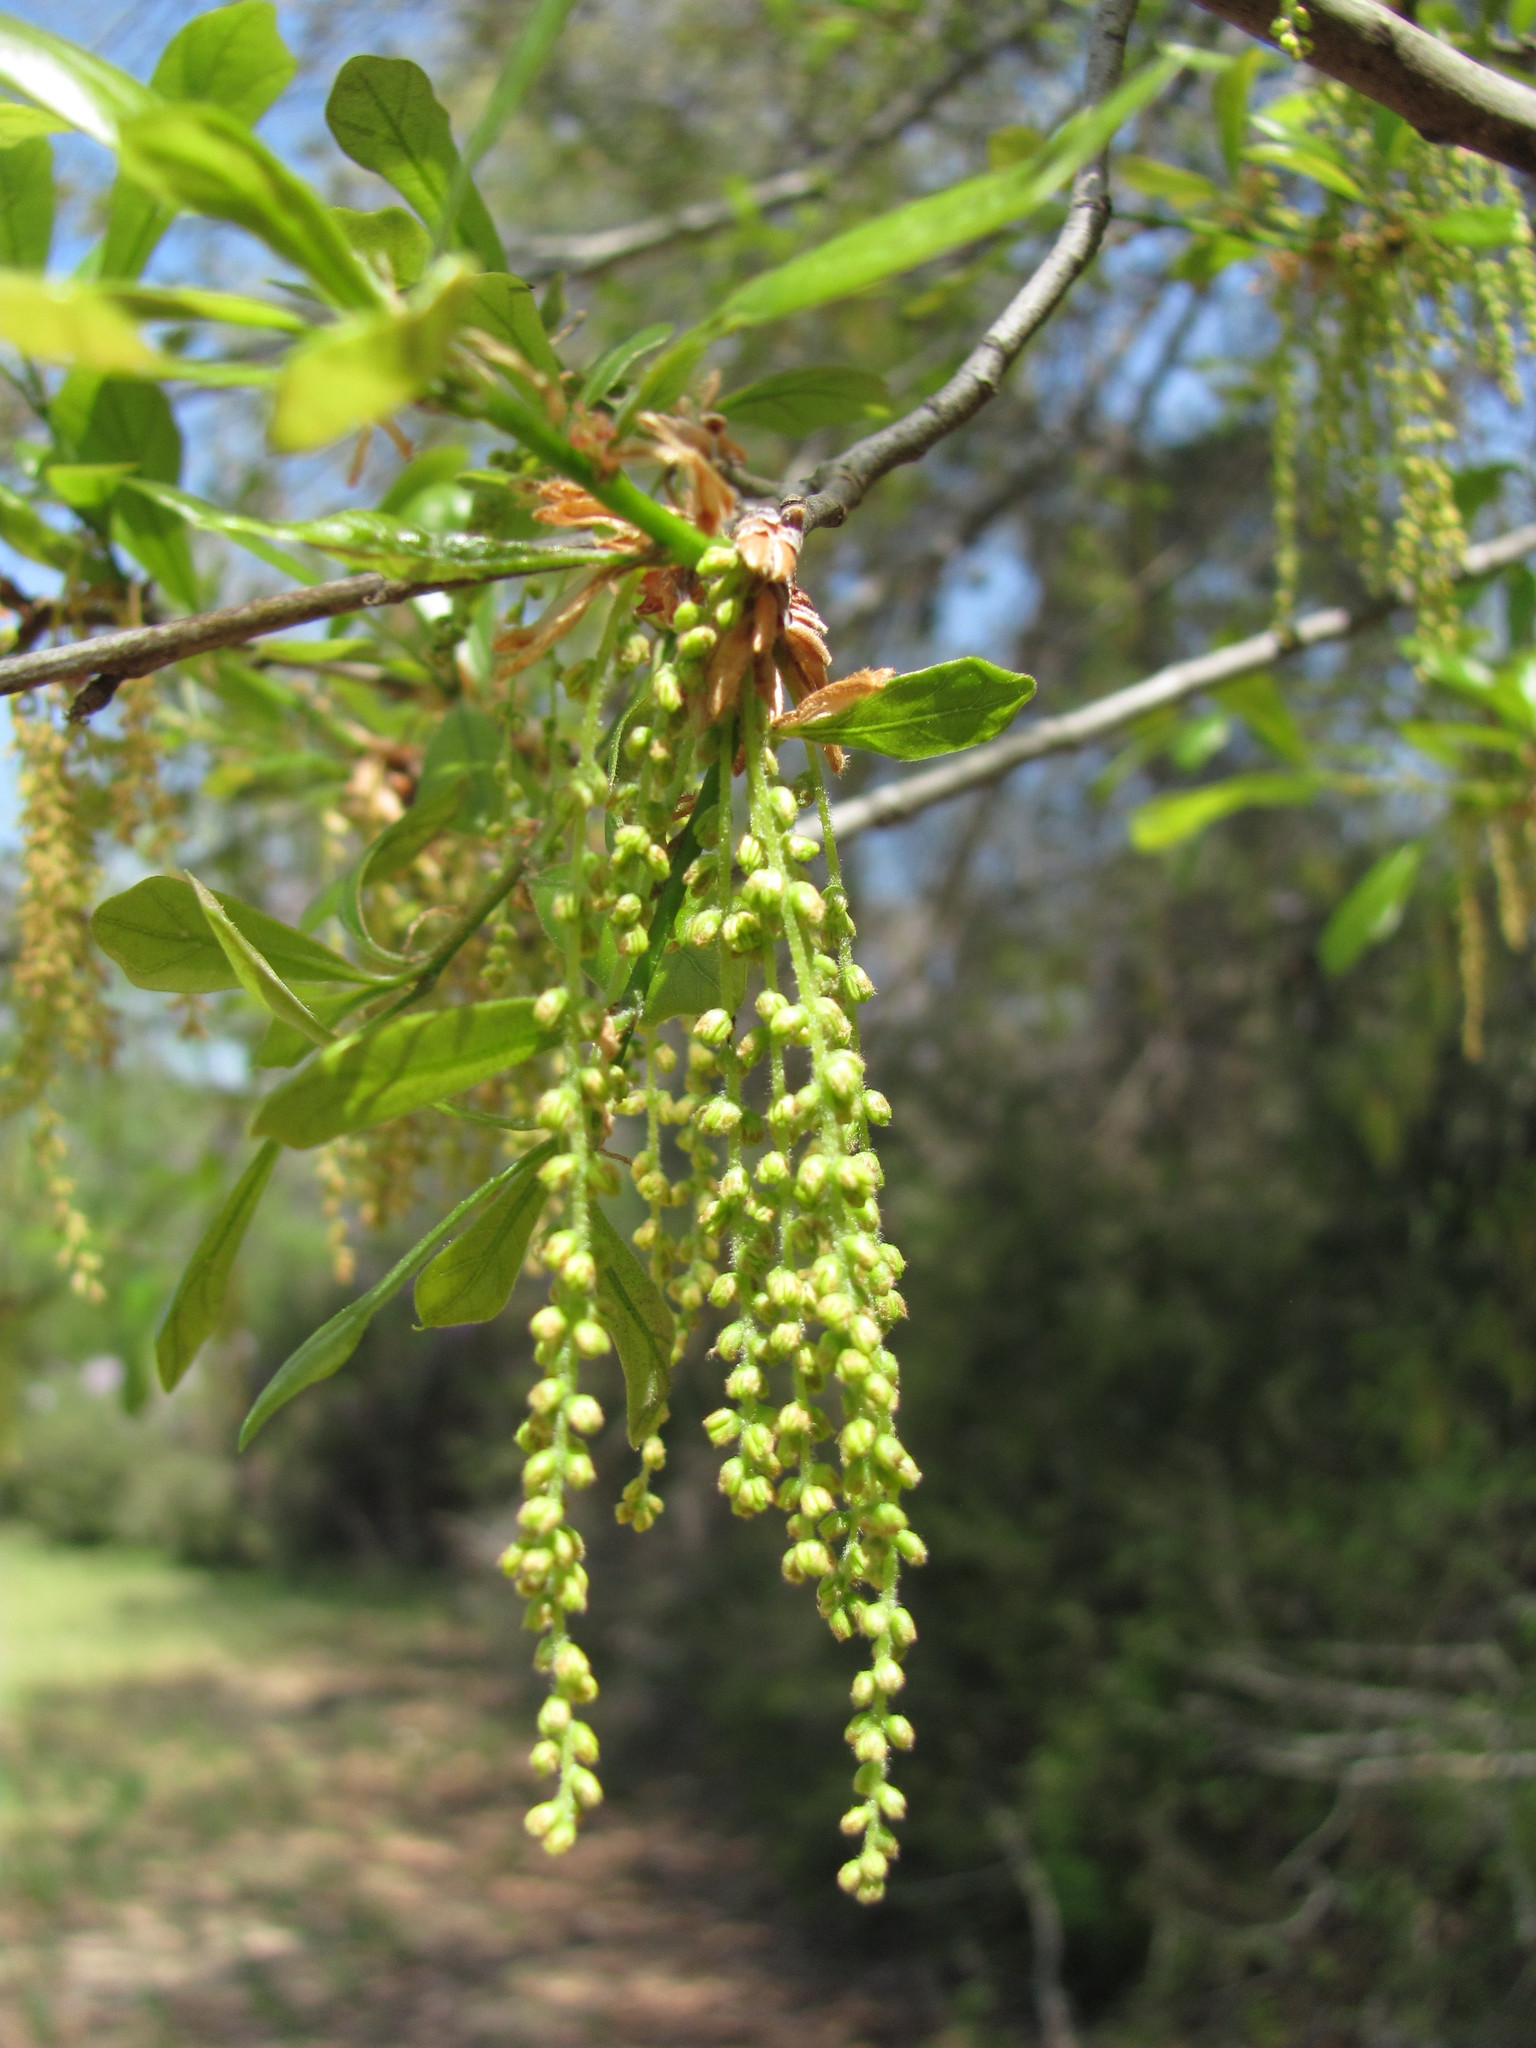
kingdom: Plantae
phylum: Tracheophyta
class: Magnoliopsida
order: Fagales
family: Fagaceae
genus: Quercus
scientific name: Quercus nigra
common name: Water oak
